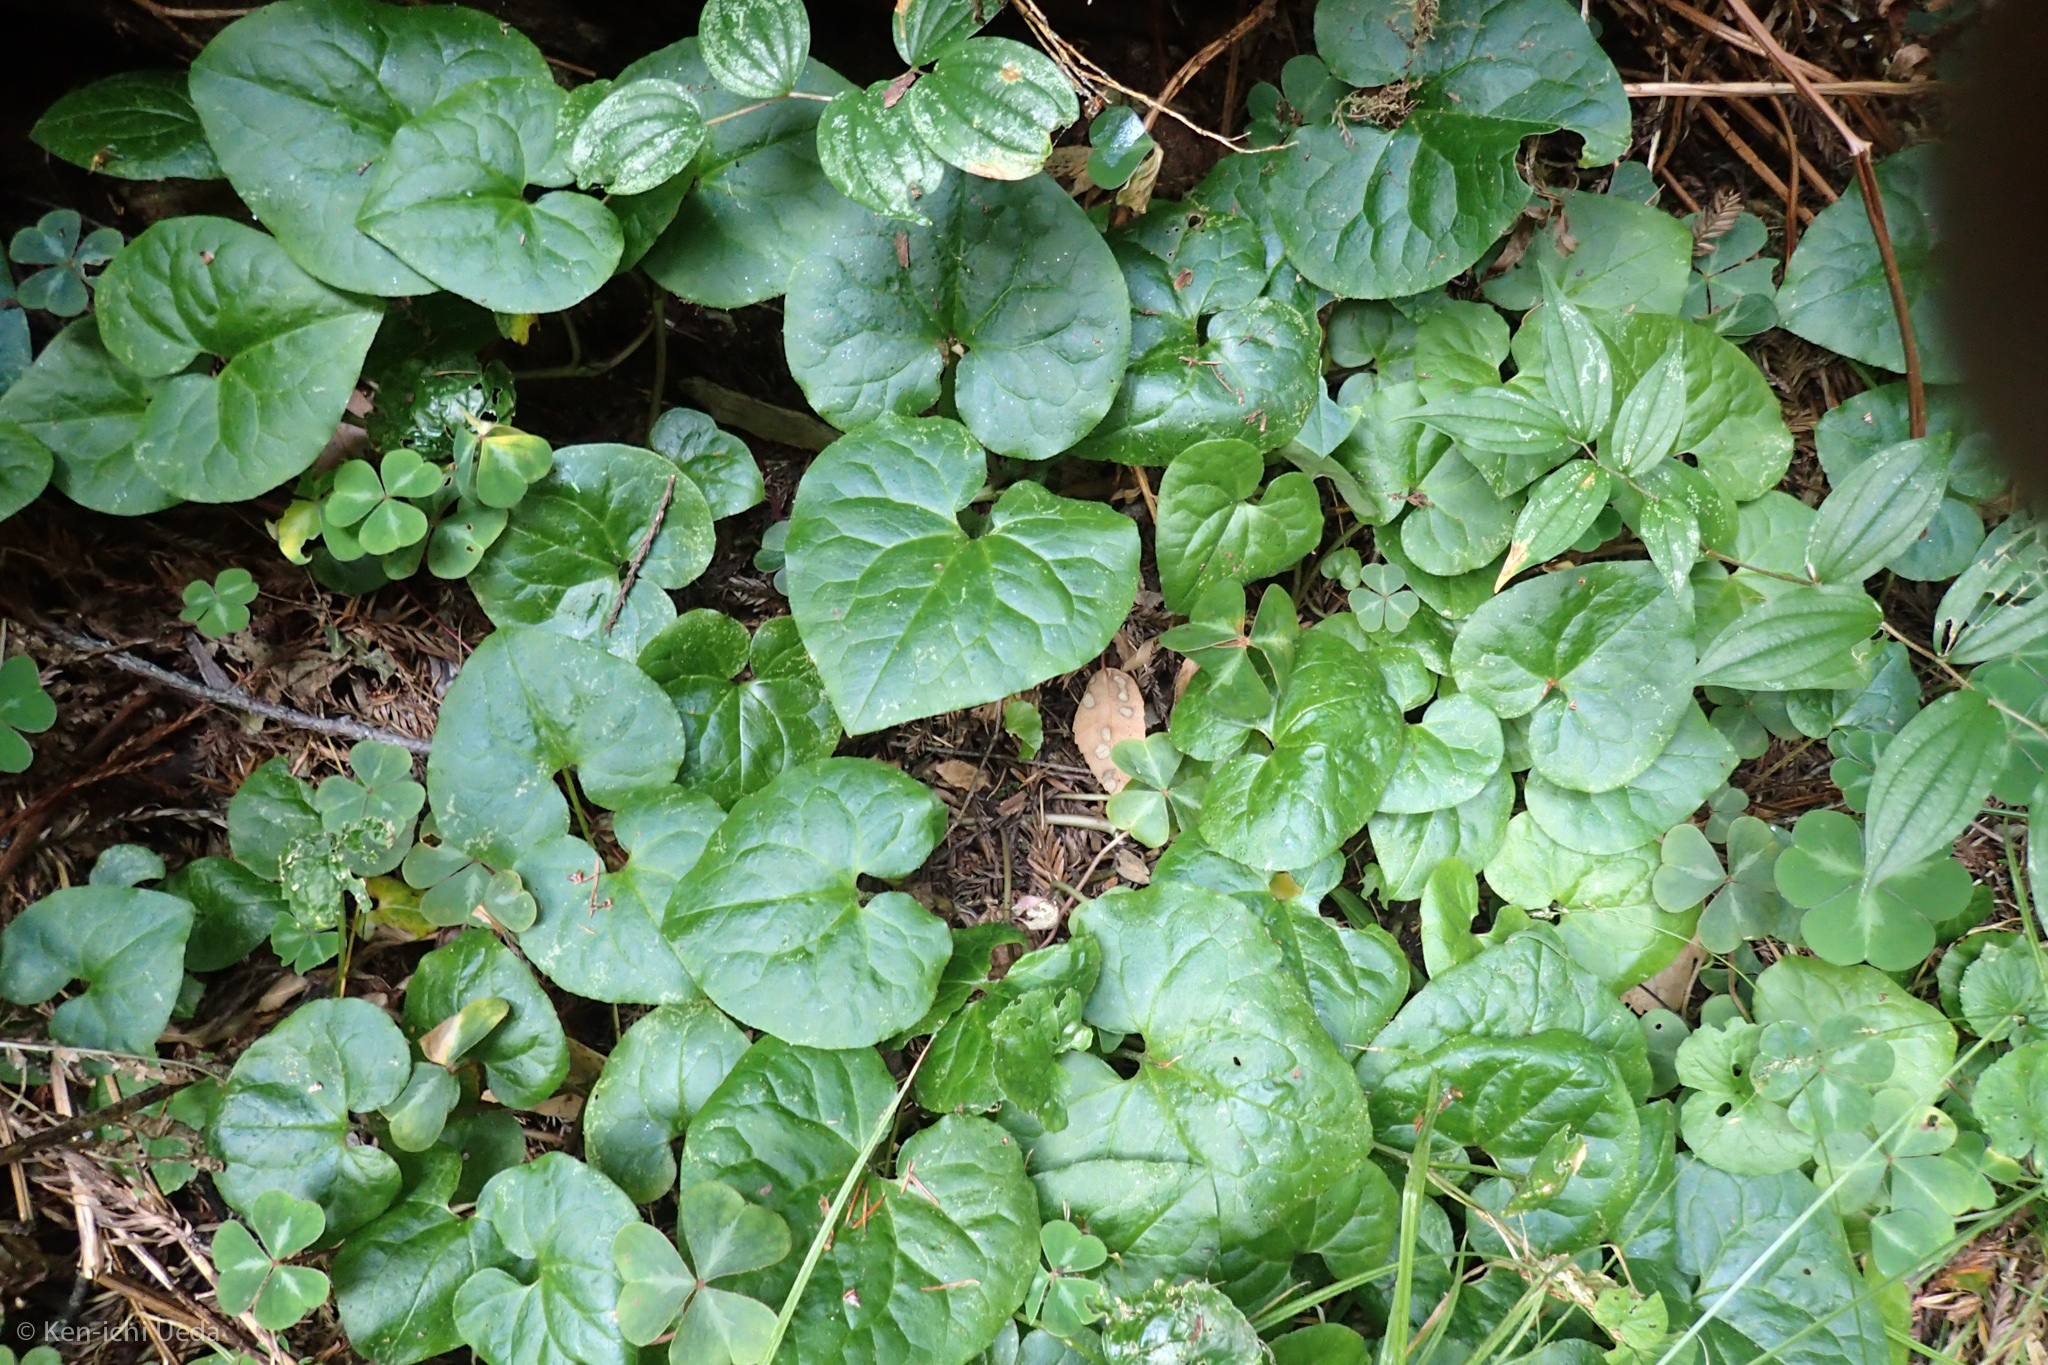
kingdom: Plantae
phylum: Tracheophyta
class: Magnoliopsida
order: Piperales
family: Aristolochiaceae
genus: Asarum
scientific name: Asarum caudatum
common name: Wild ginger
